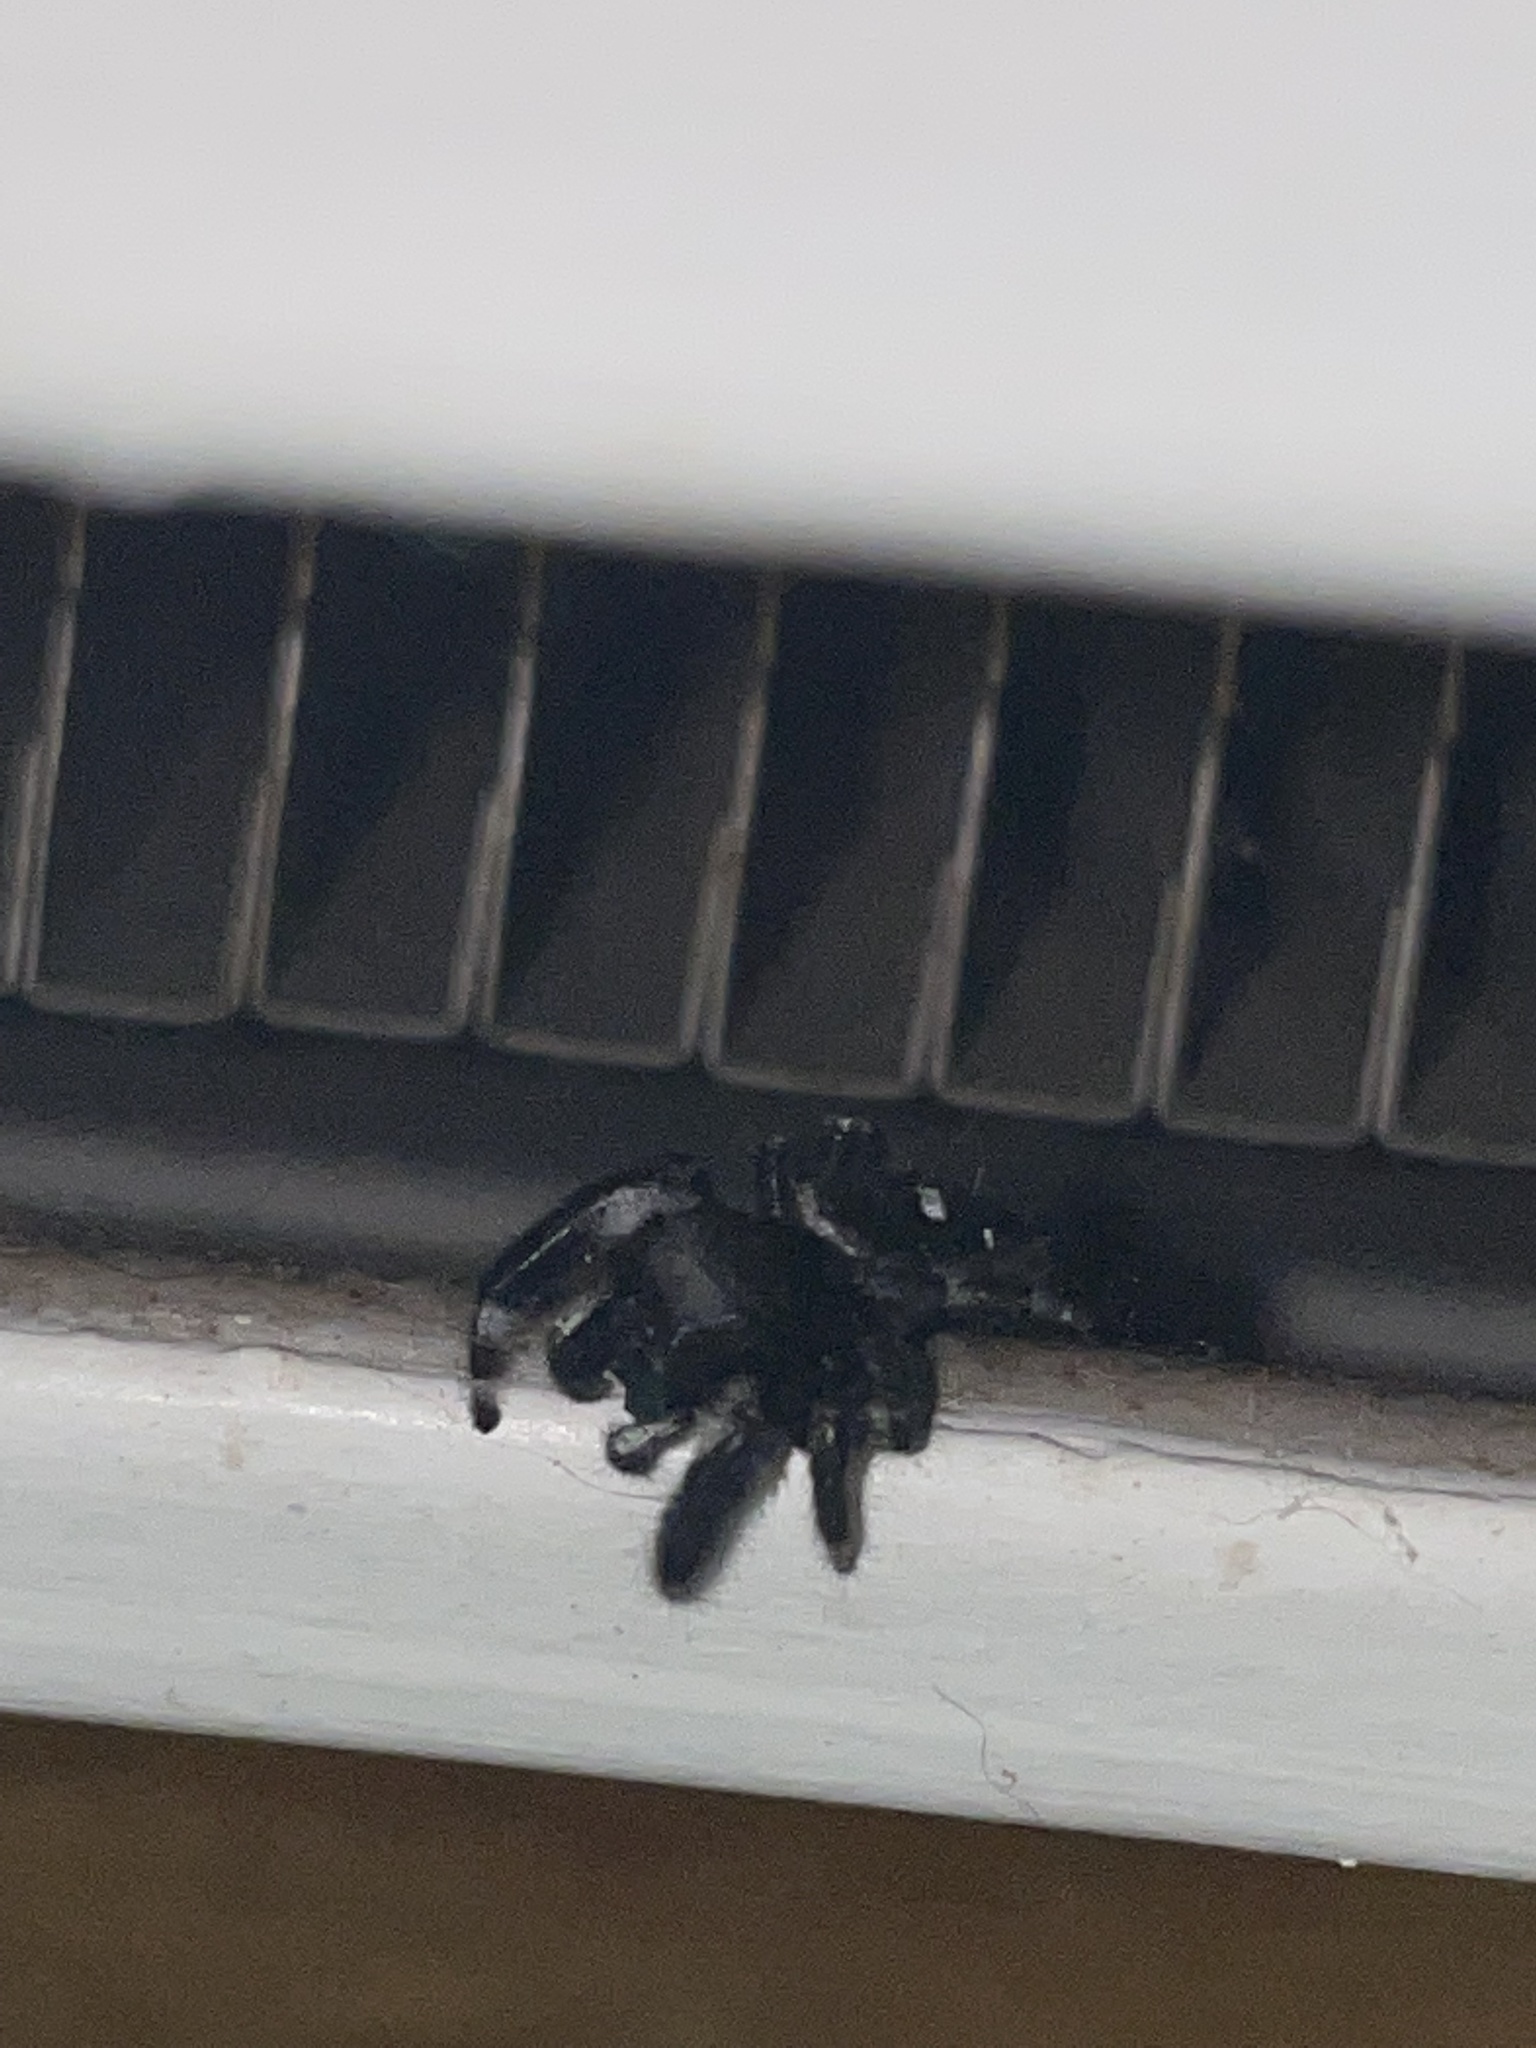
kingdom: Animalia
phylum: Arthropoda
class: Arachnida
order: Araneae
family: Salticidae
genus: Phidippus
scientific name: Phidippus audax
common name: Bold jumper
